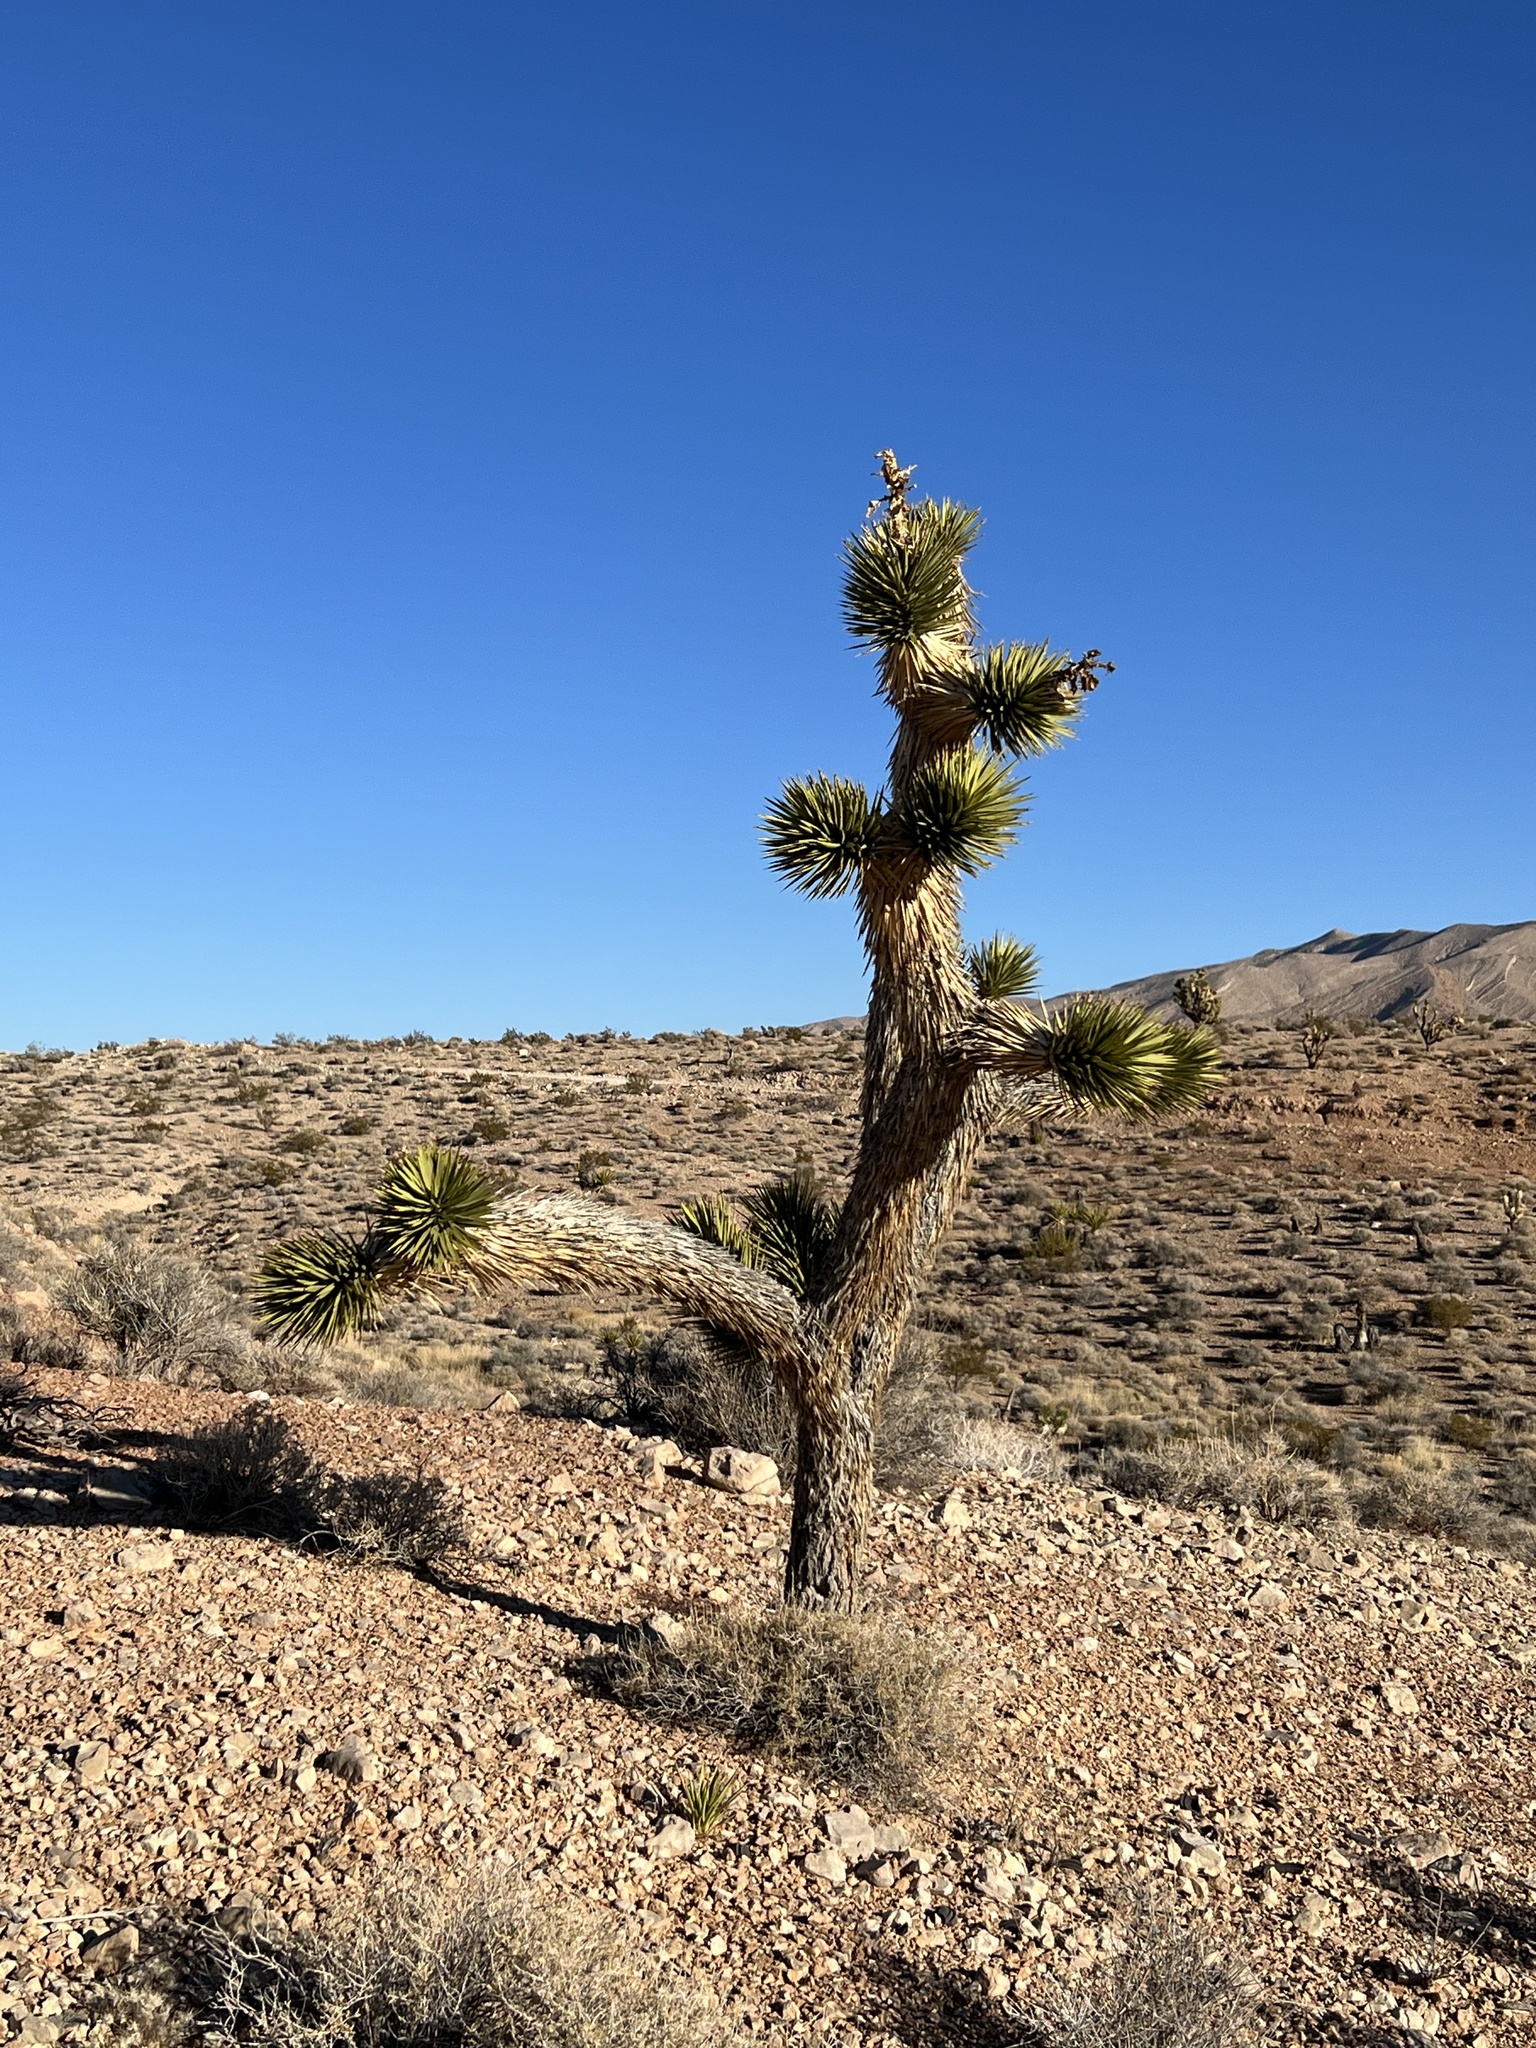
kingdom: Plantae
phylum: Tracheophyta
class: Liliopsida
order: Asparagales
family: Asparagaceae
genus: Yucca
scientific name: Yucca brevifolia
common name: Joshua tree
